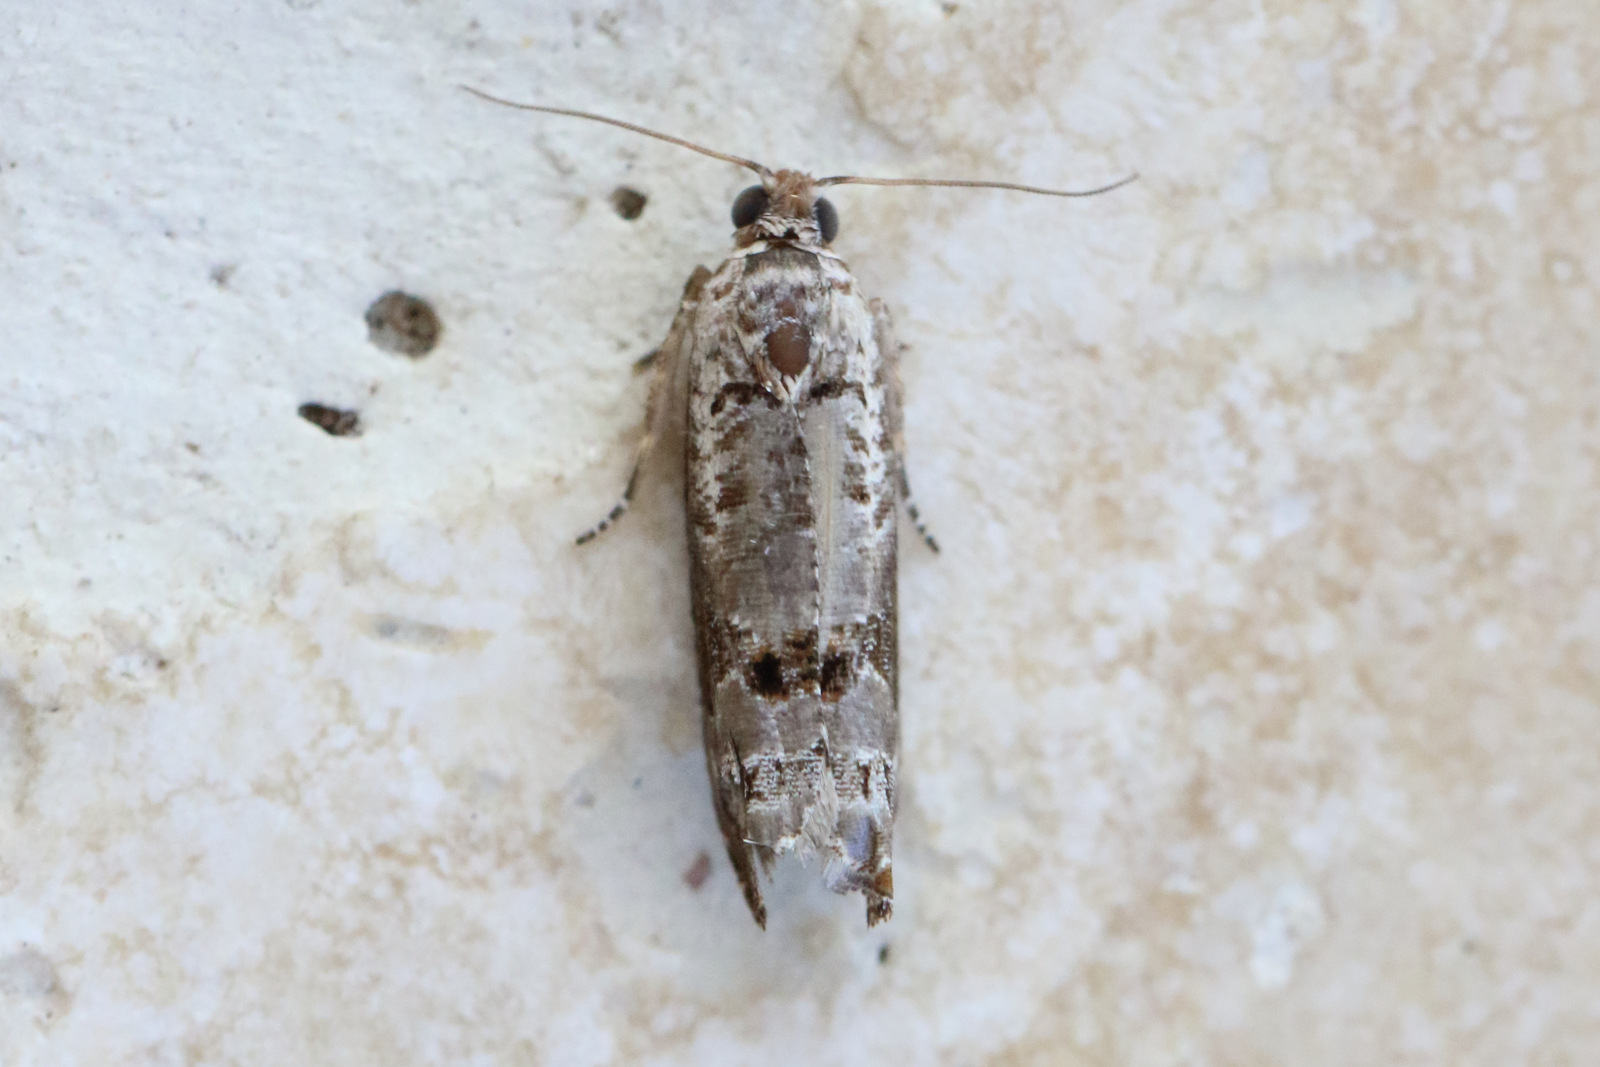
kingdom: Animalia
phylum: Arthropoda
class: Insecta
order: Lepidoptera
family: Tortricidae
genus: Dudua
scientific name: Dudua aprobola
